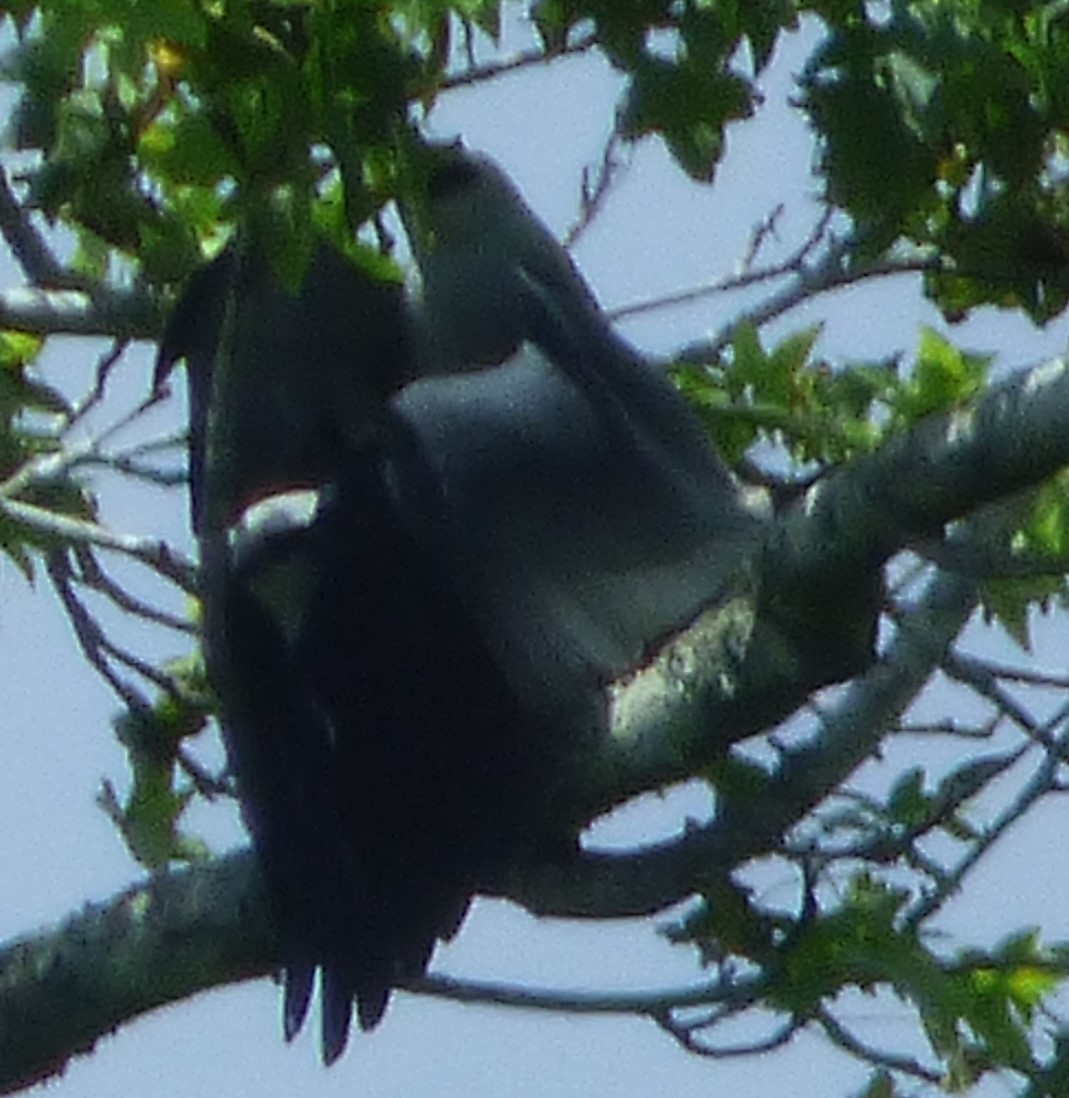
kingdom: Animalia
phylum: Chordata
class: Aves
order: Accipitriformes
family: Accipitridae
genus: Ictinia
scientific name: Ictinia mississippiensis
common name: Mississippi kite
